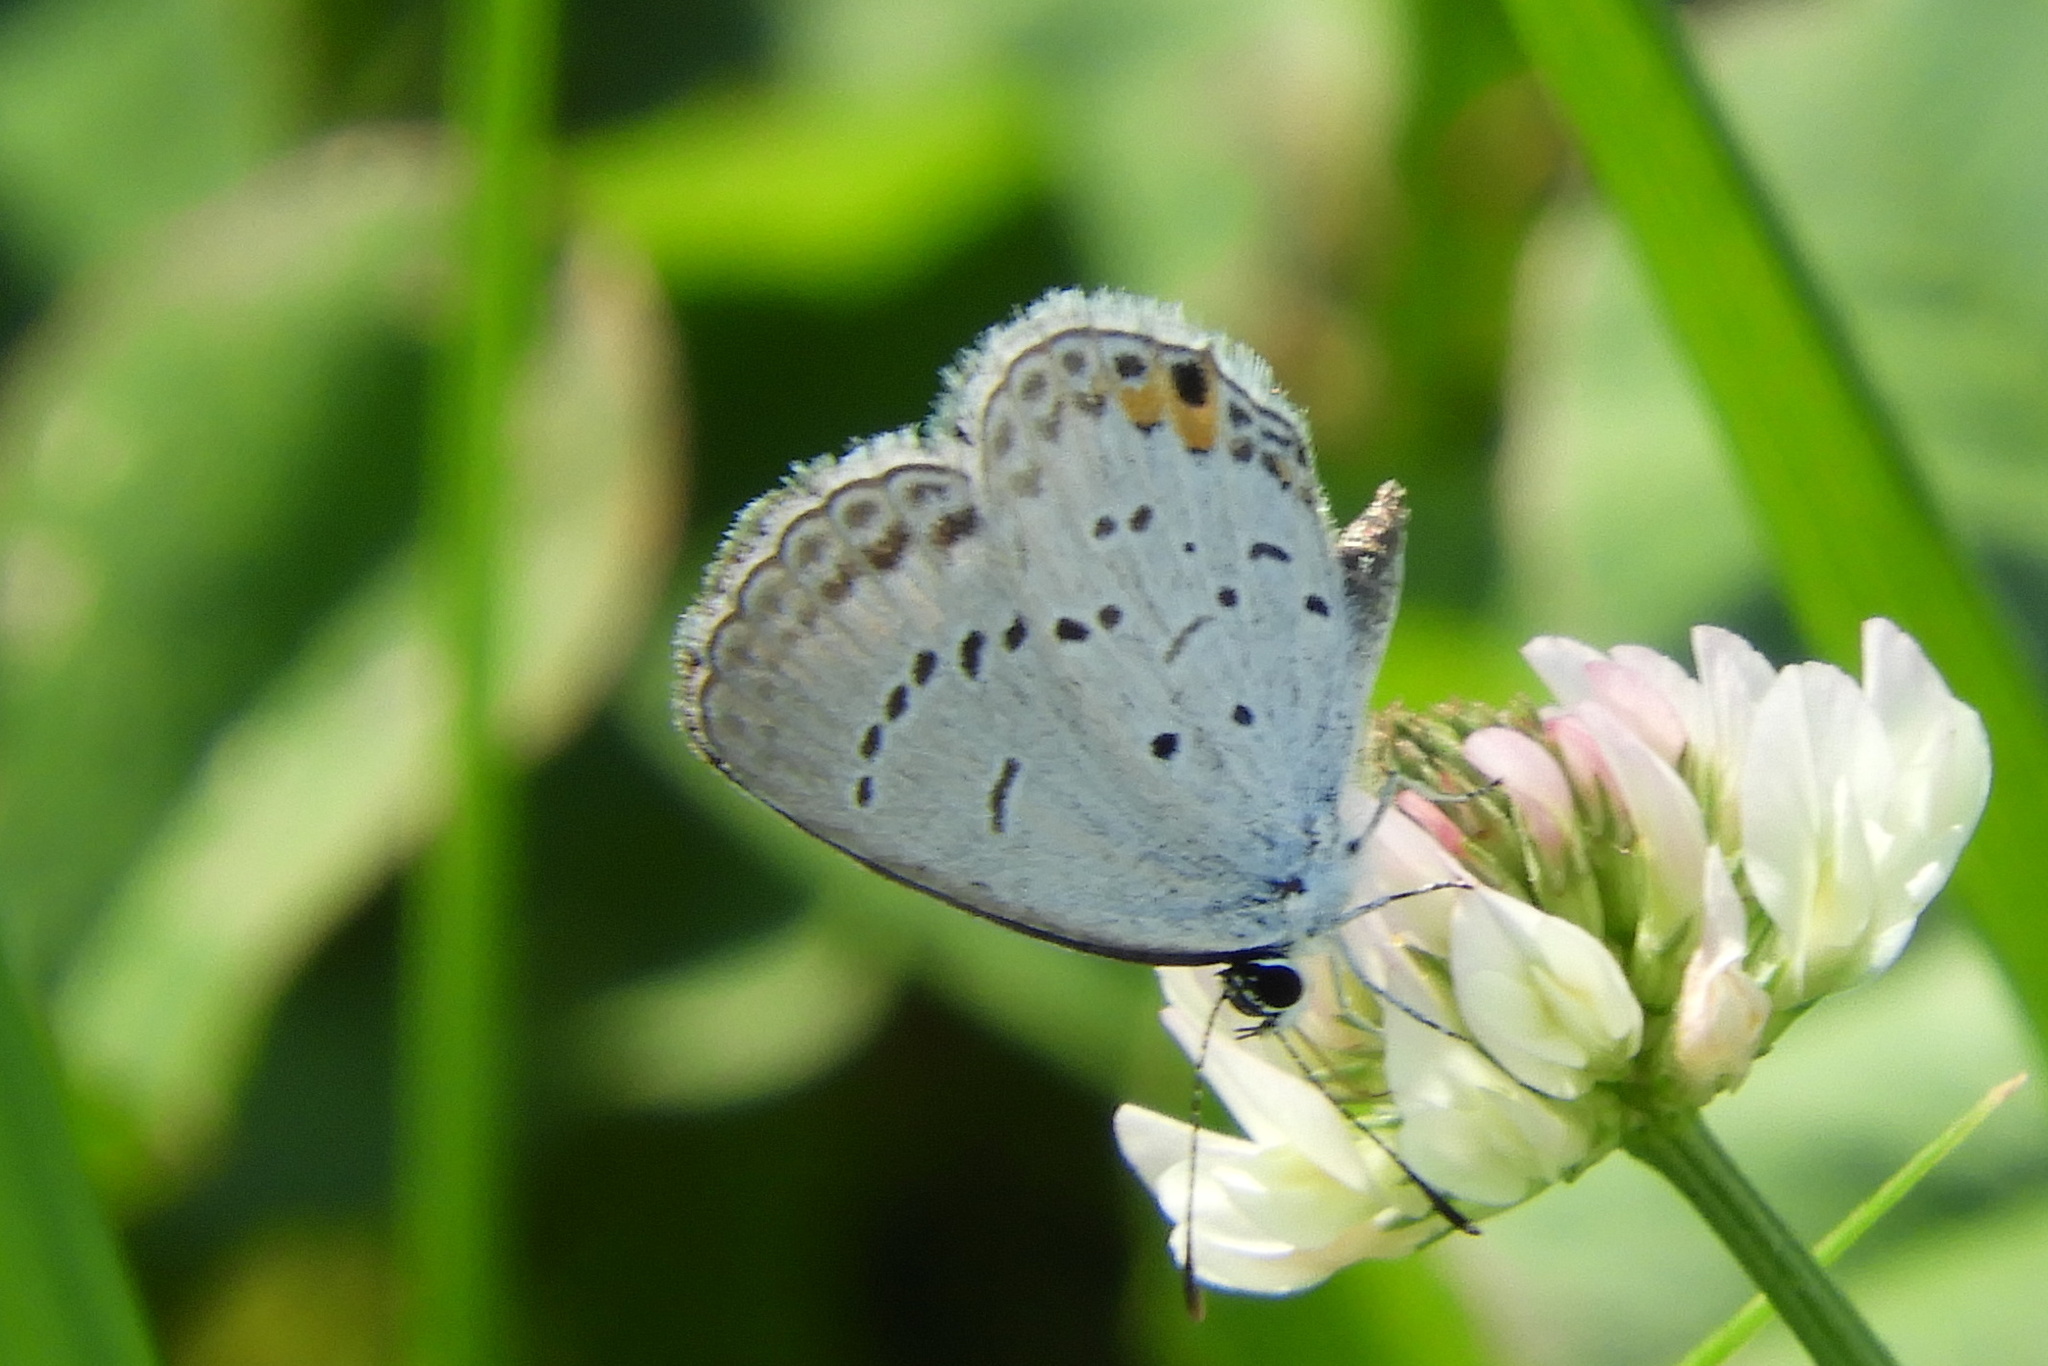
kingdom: Animalia
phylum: Arthropoda
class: Insecta
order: Lepidoptera
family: Lycaenidae
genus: Elkalyce
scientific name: Elkalyce comyntas
